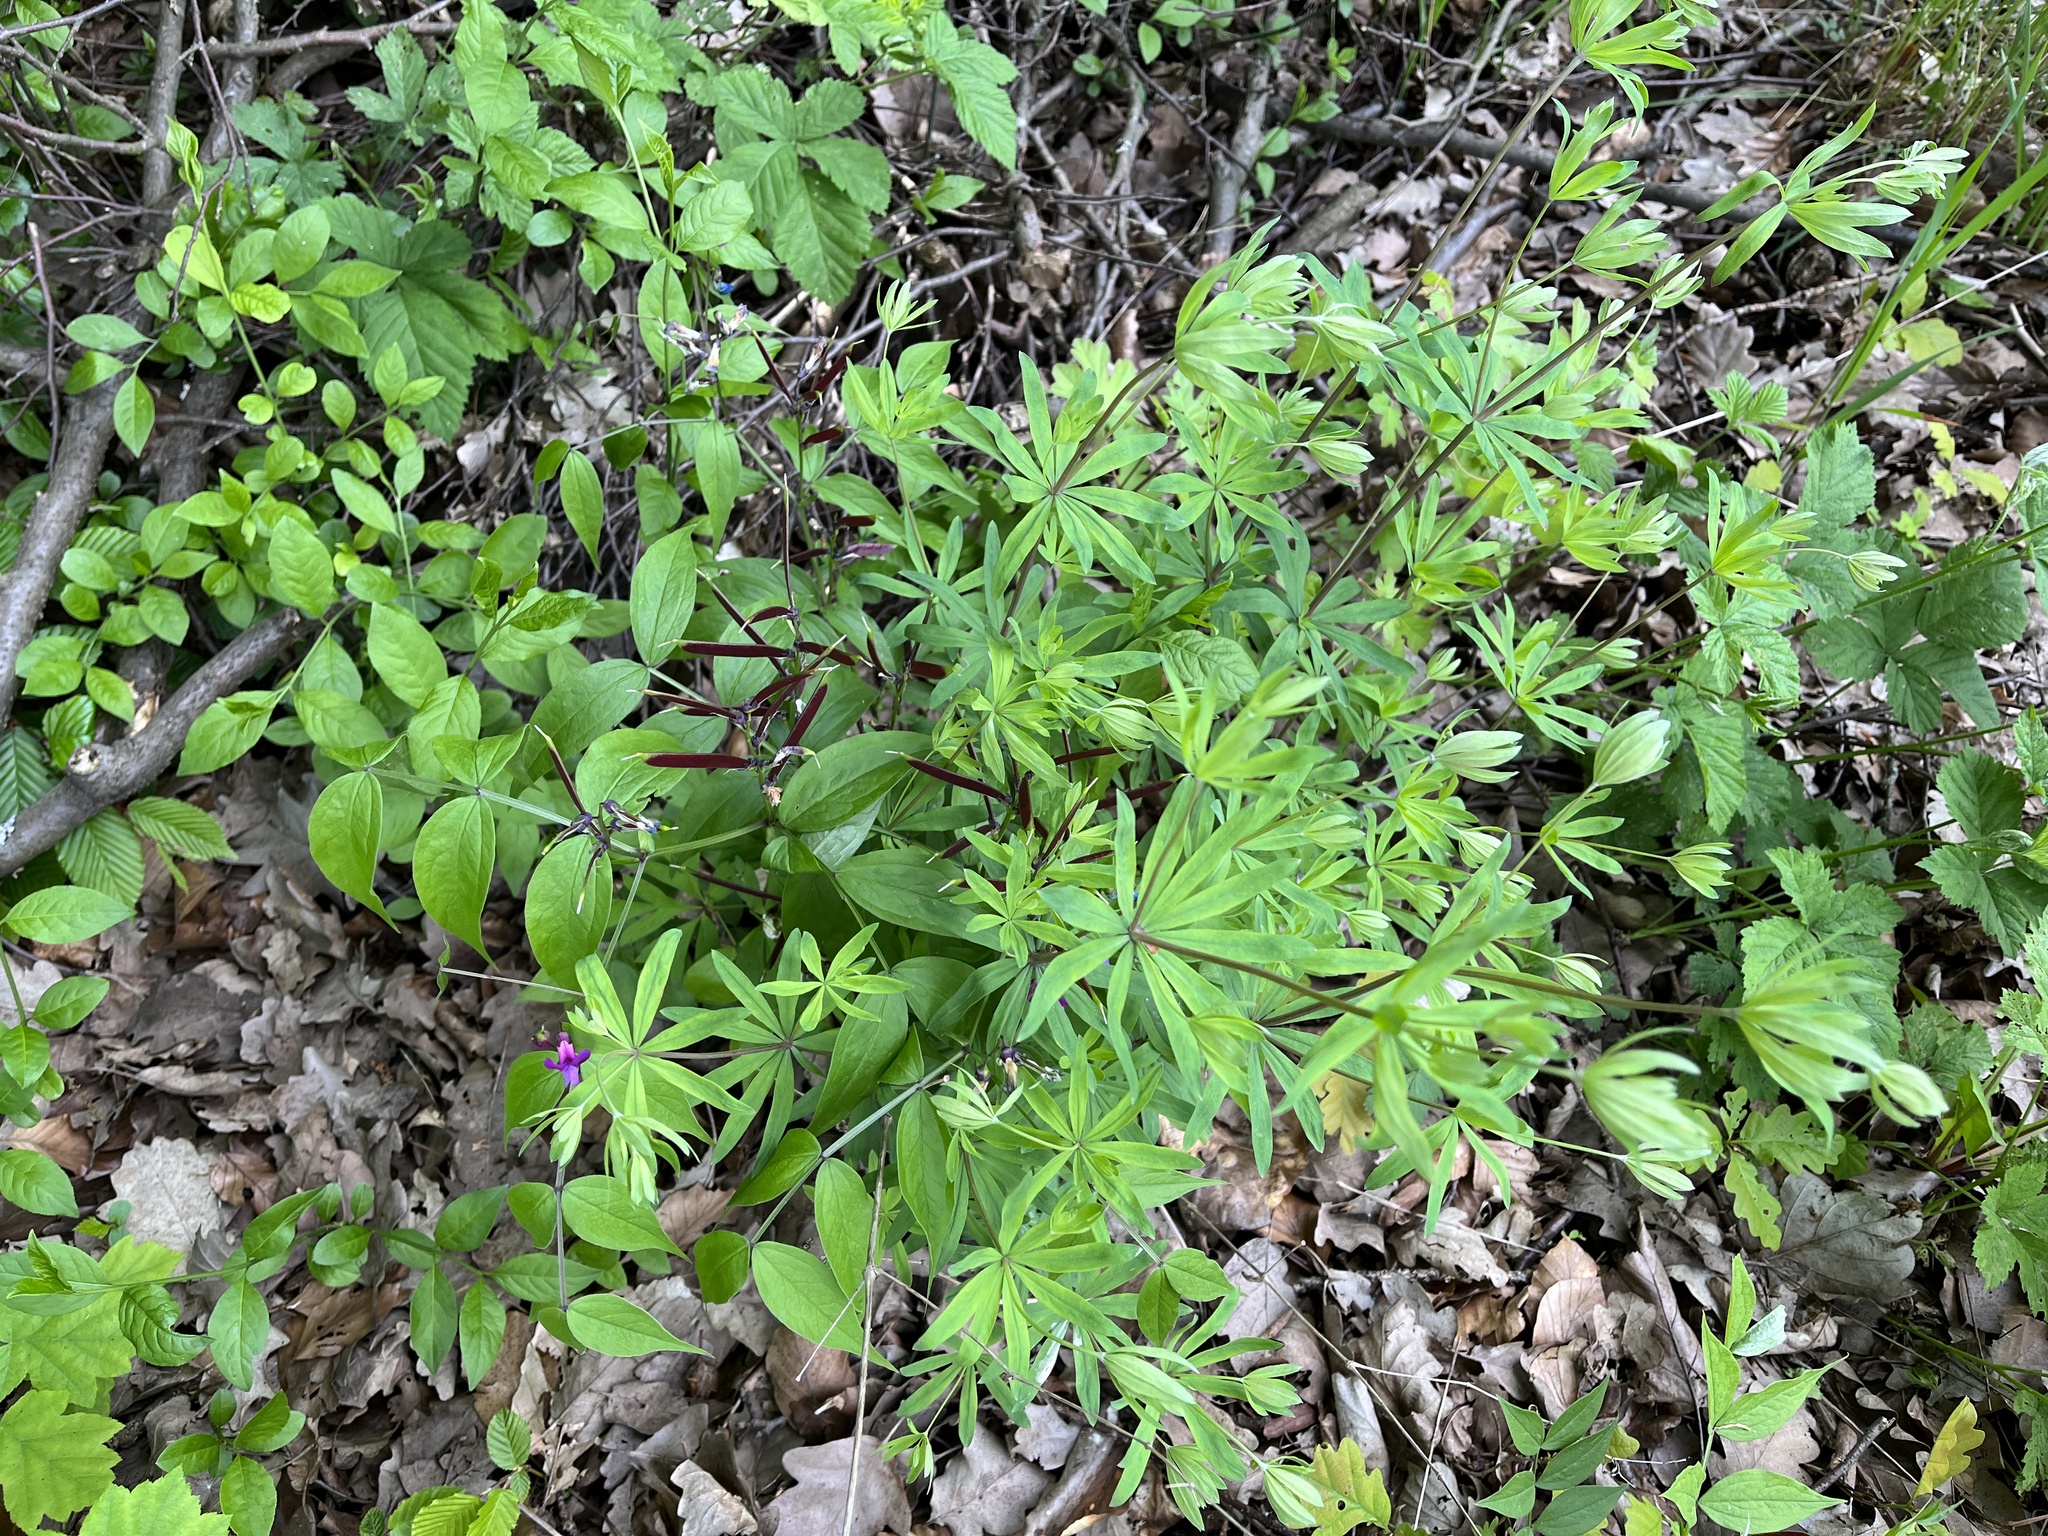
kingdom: Plantae
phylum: Tracheophyta
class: Magnoliopsida
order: Gentianales
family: Rubiaceae
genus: Galium
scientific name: Galium sylvaticum
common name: Wood bedstraw
